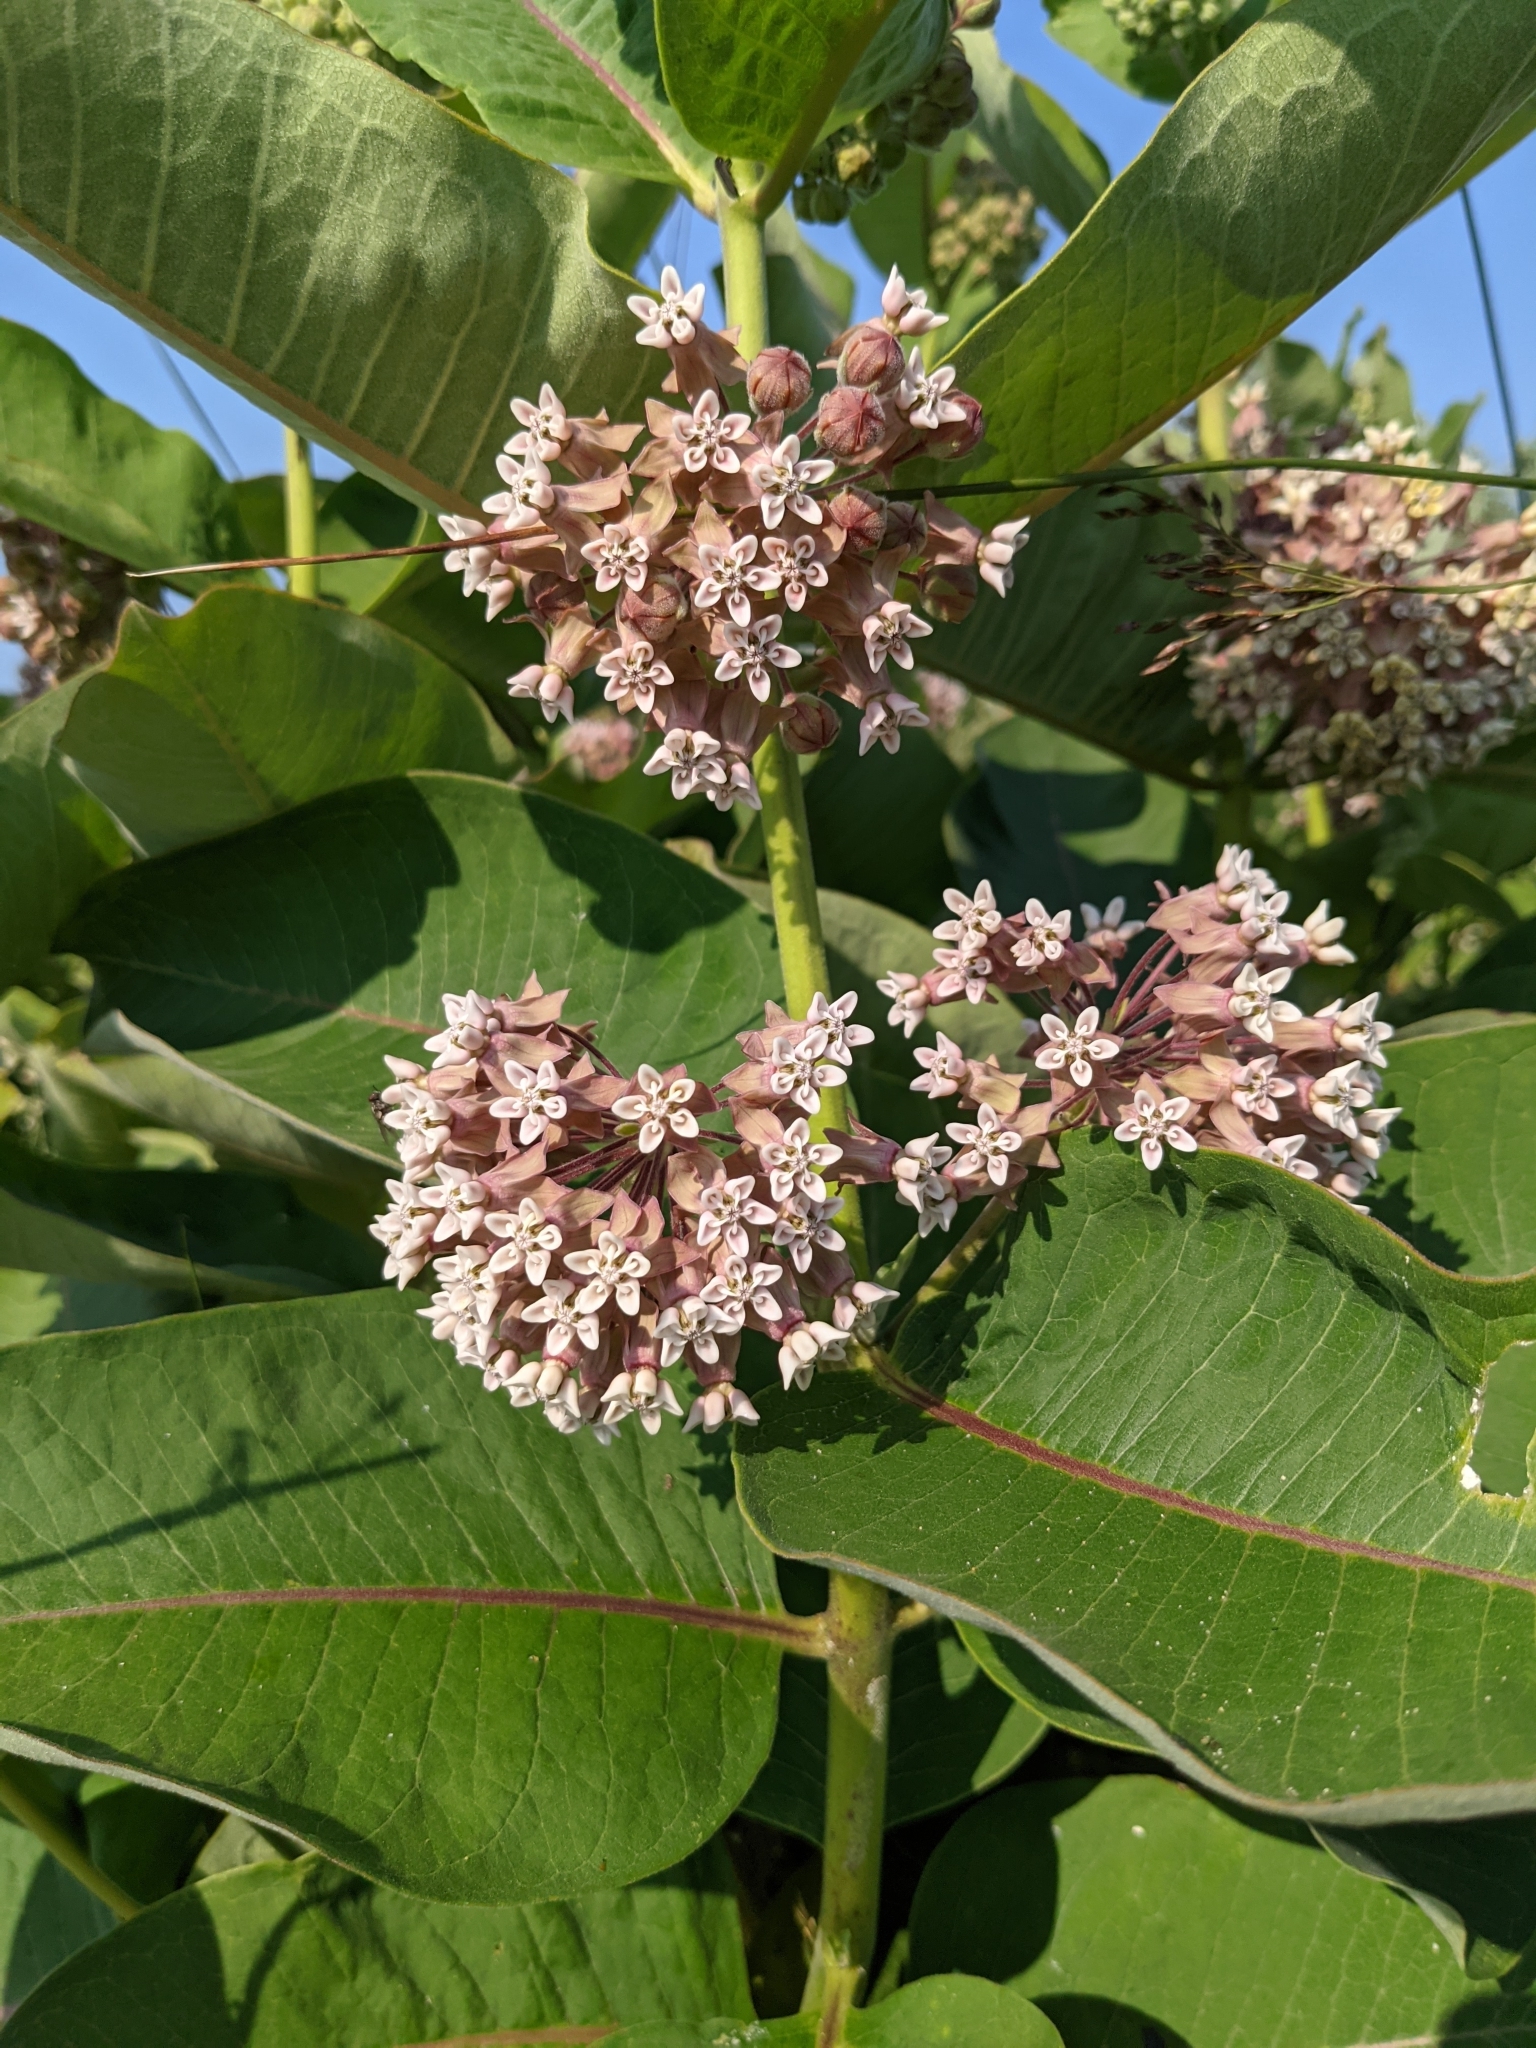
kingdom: Plantae
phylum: Tracheophyta
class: Magnoliopsida
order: Gentianales
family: Apocynaceae
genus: Asclepias
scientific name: Asclepias syriaca
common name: Common milkweed
